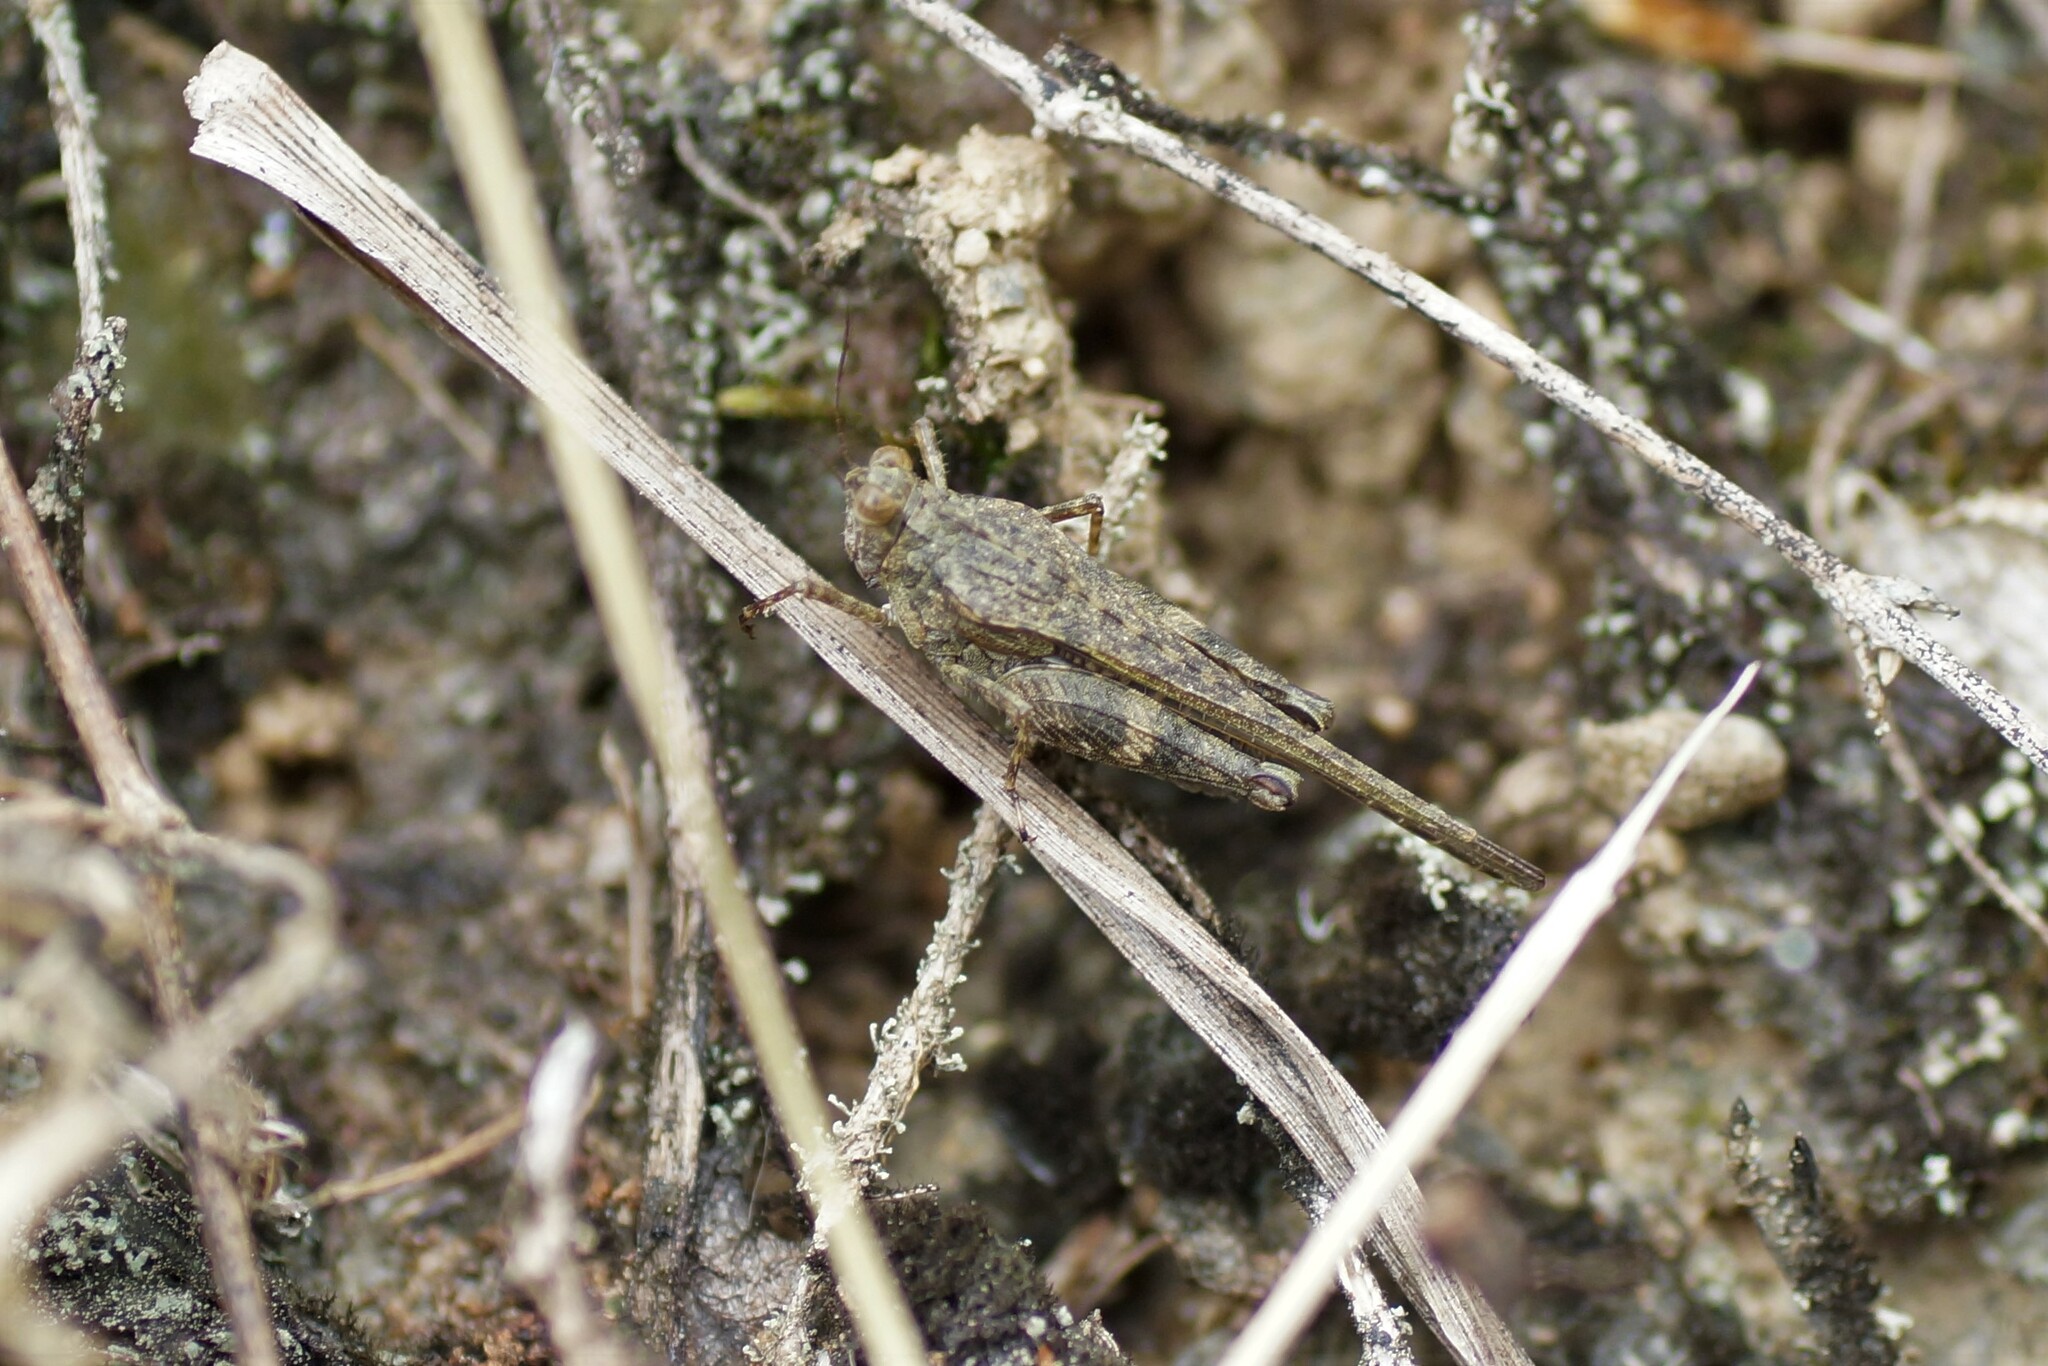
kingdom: Animalia
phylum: Arthropoda
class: Insecta
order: Orthoptera
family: Tetrigidae
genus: Paratettix
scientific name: Paratettix amplus
